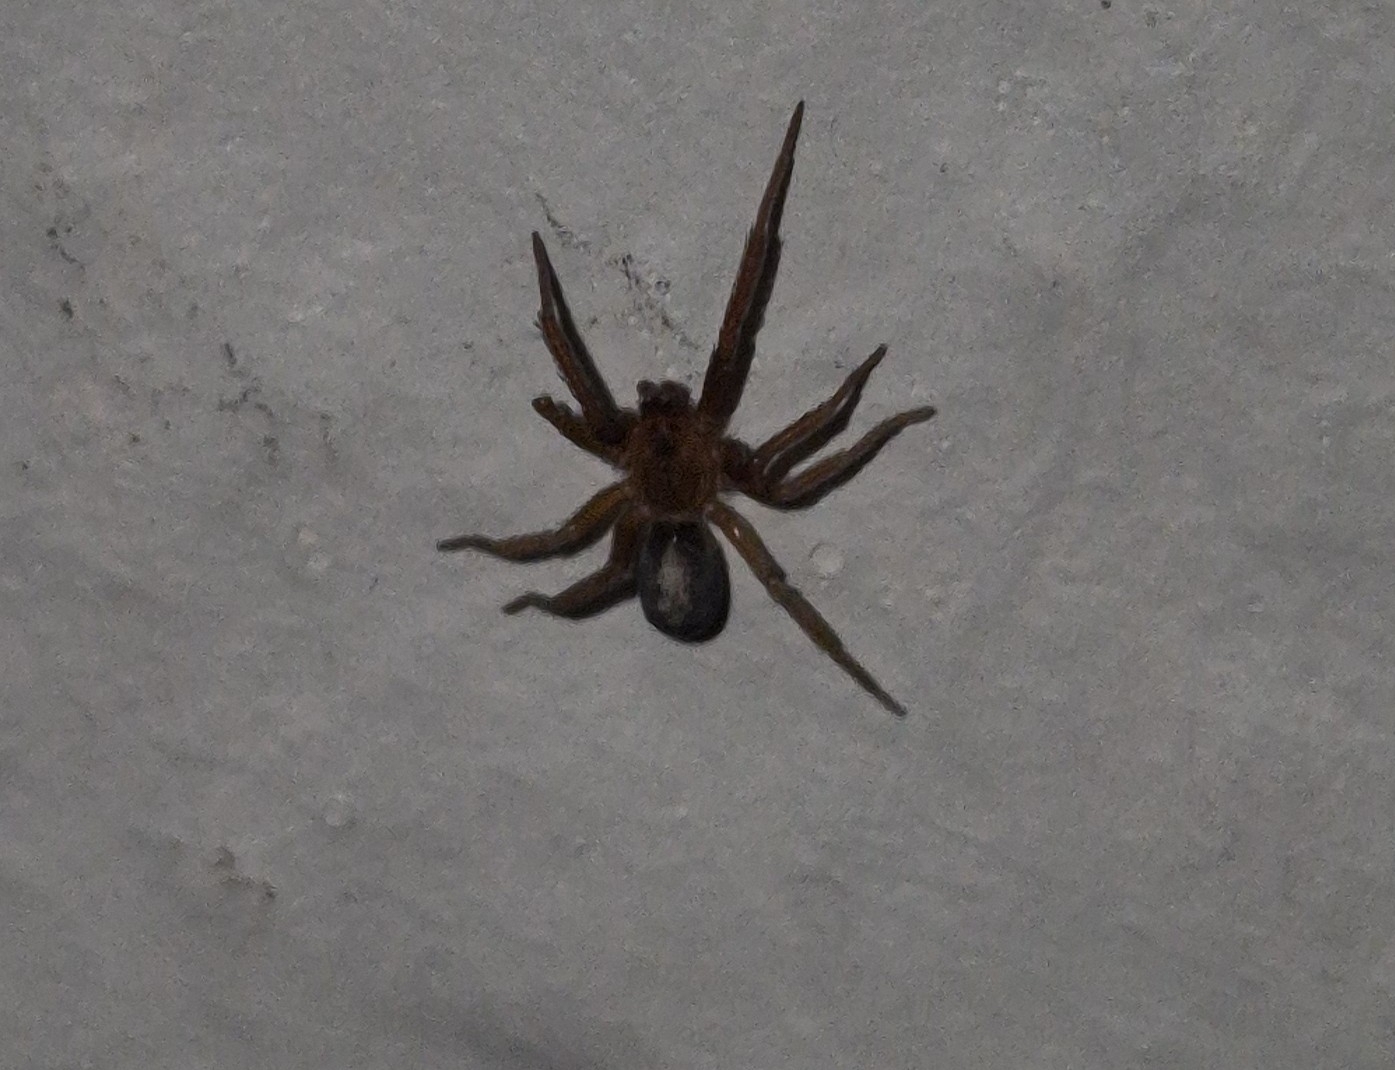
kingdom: Animalia
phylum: Arthropoda
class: Arachnida
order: Araneae
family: Filistatidae
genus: Pritha
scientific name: Pritha pallida
